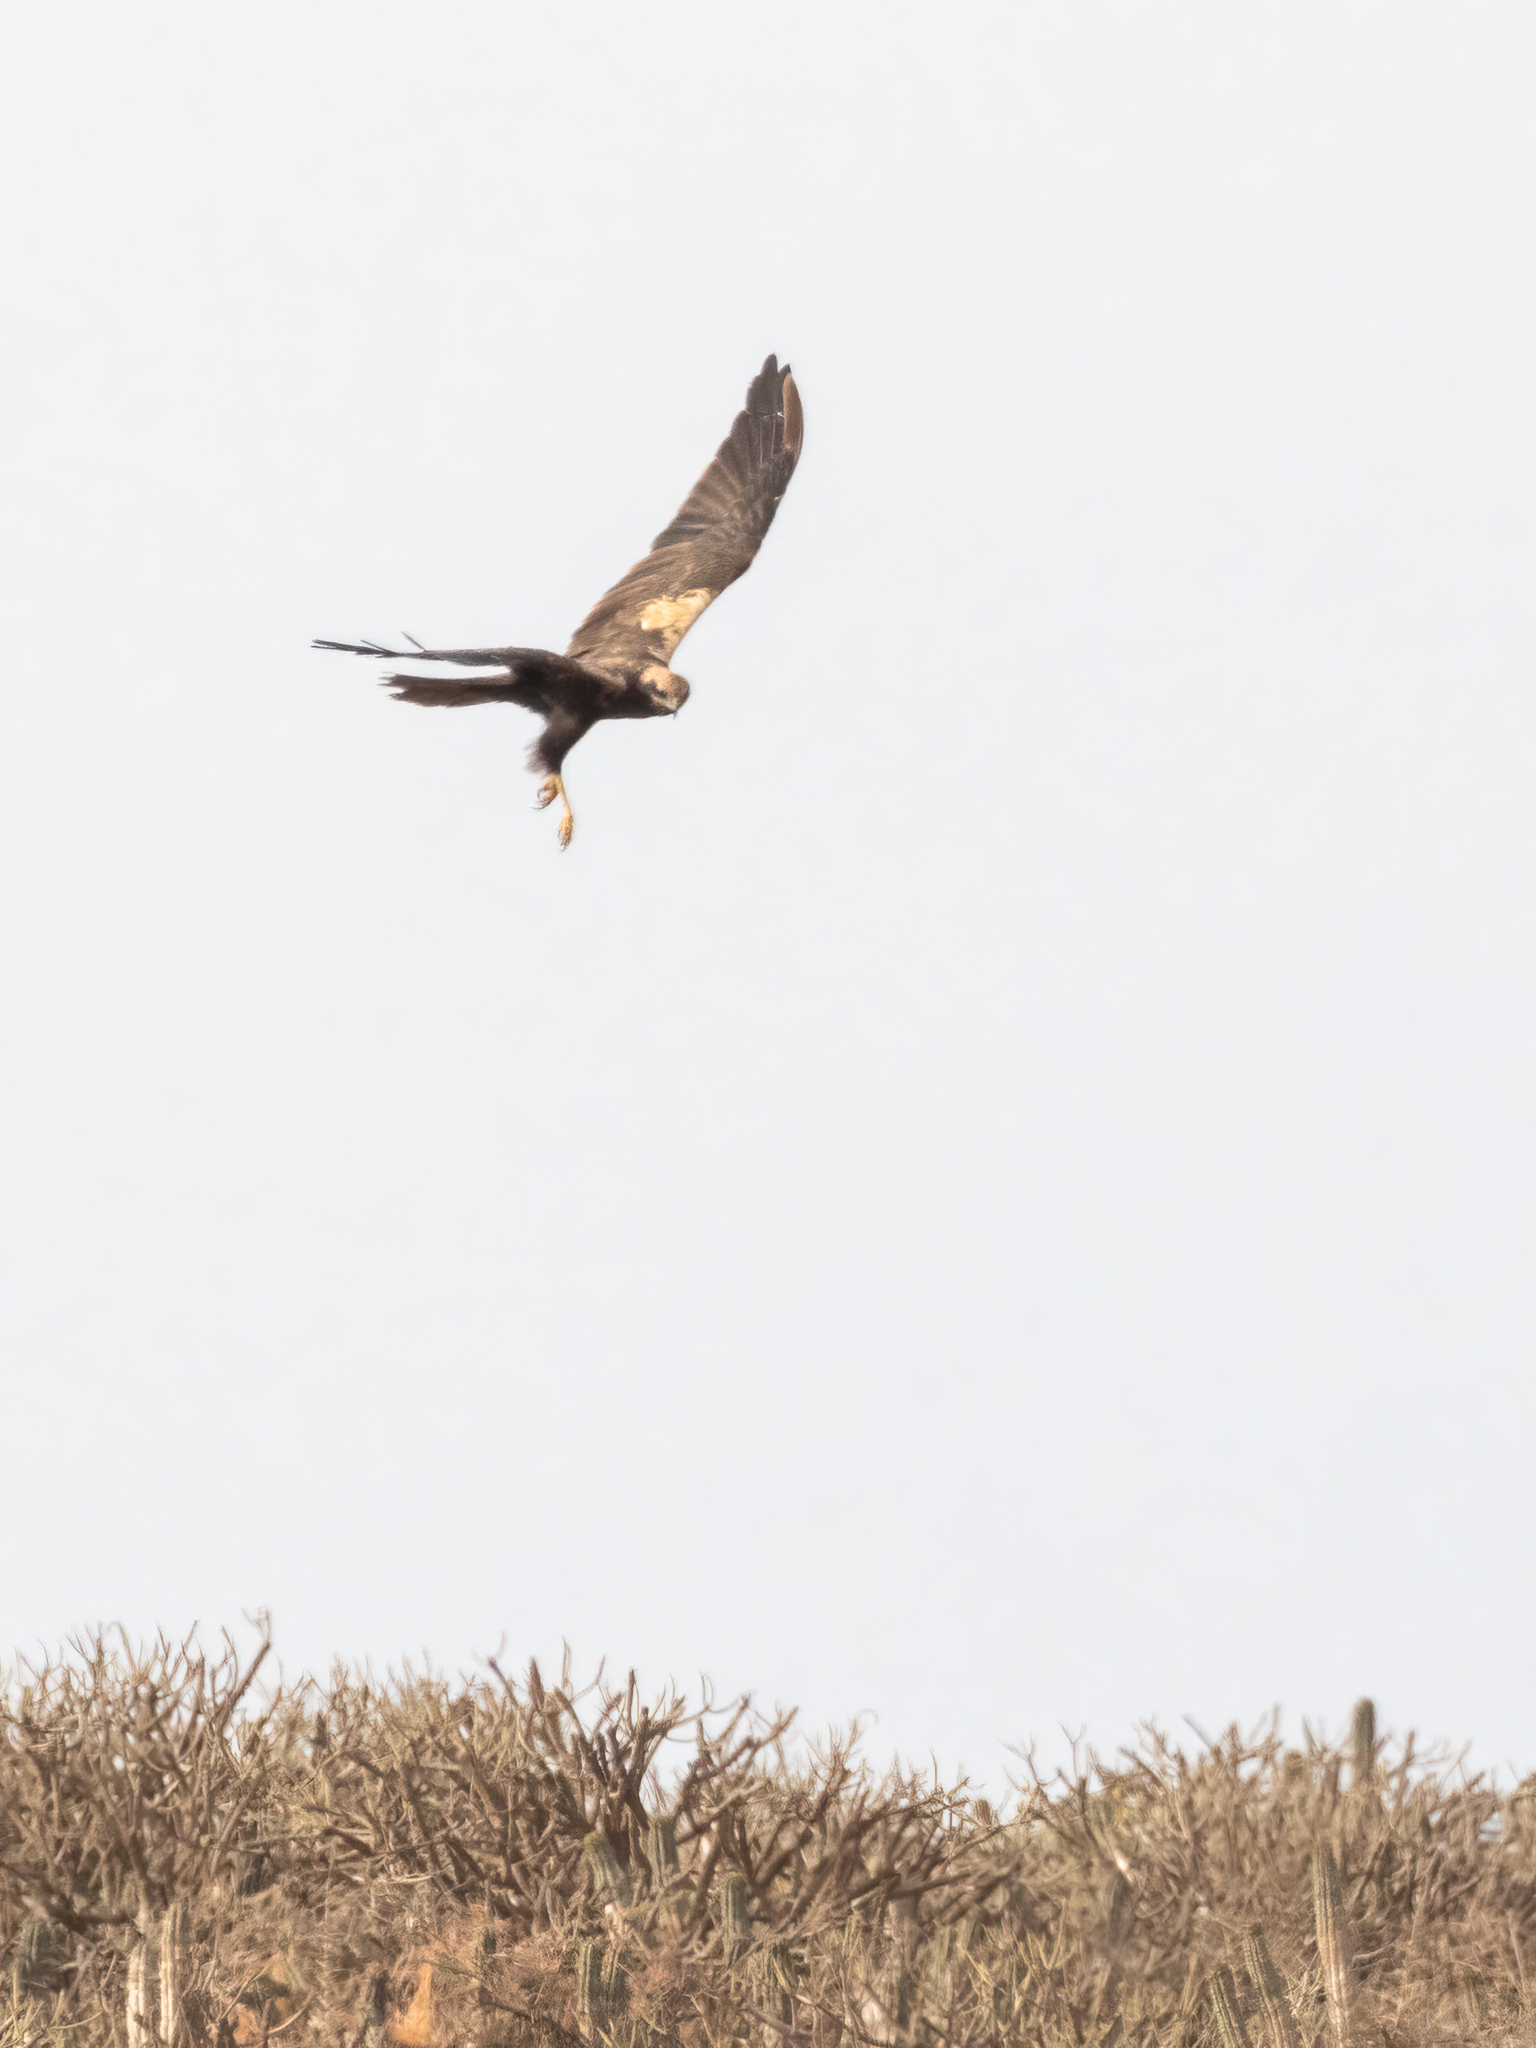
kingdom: Animalia
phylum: Chordata
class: Aves
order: Accipitriformes
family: Accipitridae
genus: Circus
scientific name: Circus aeruginosus
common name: Western marsh harrier
